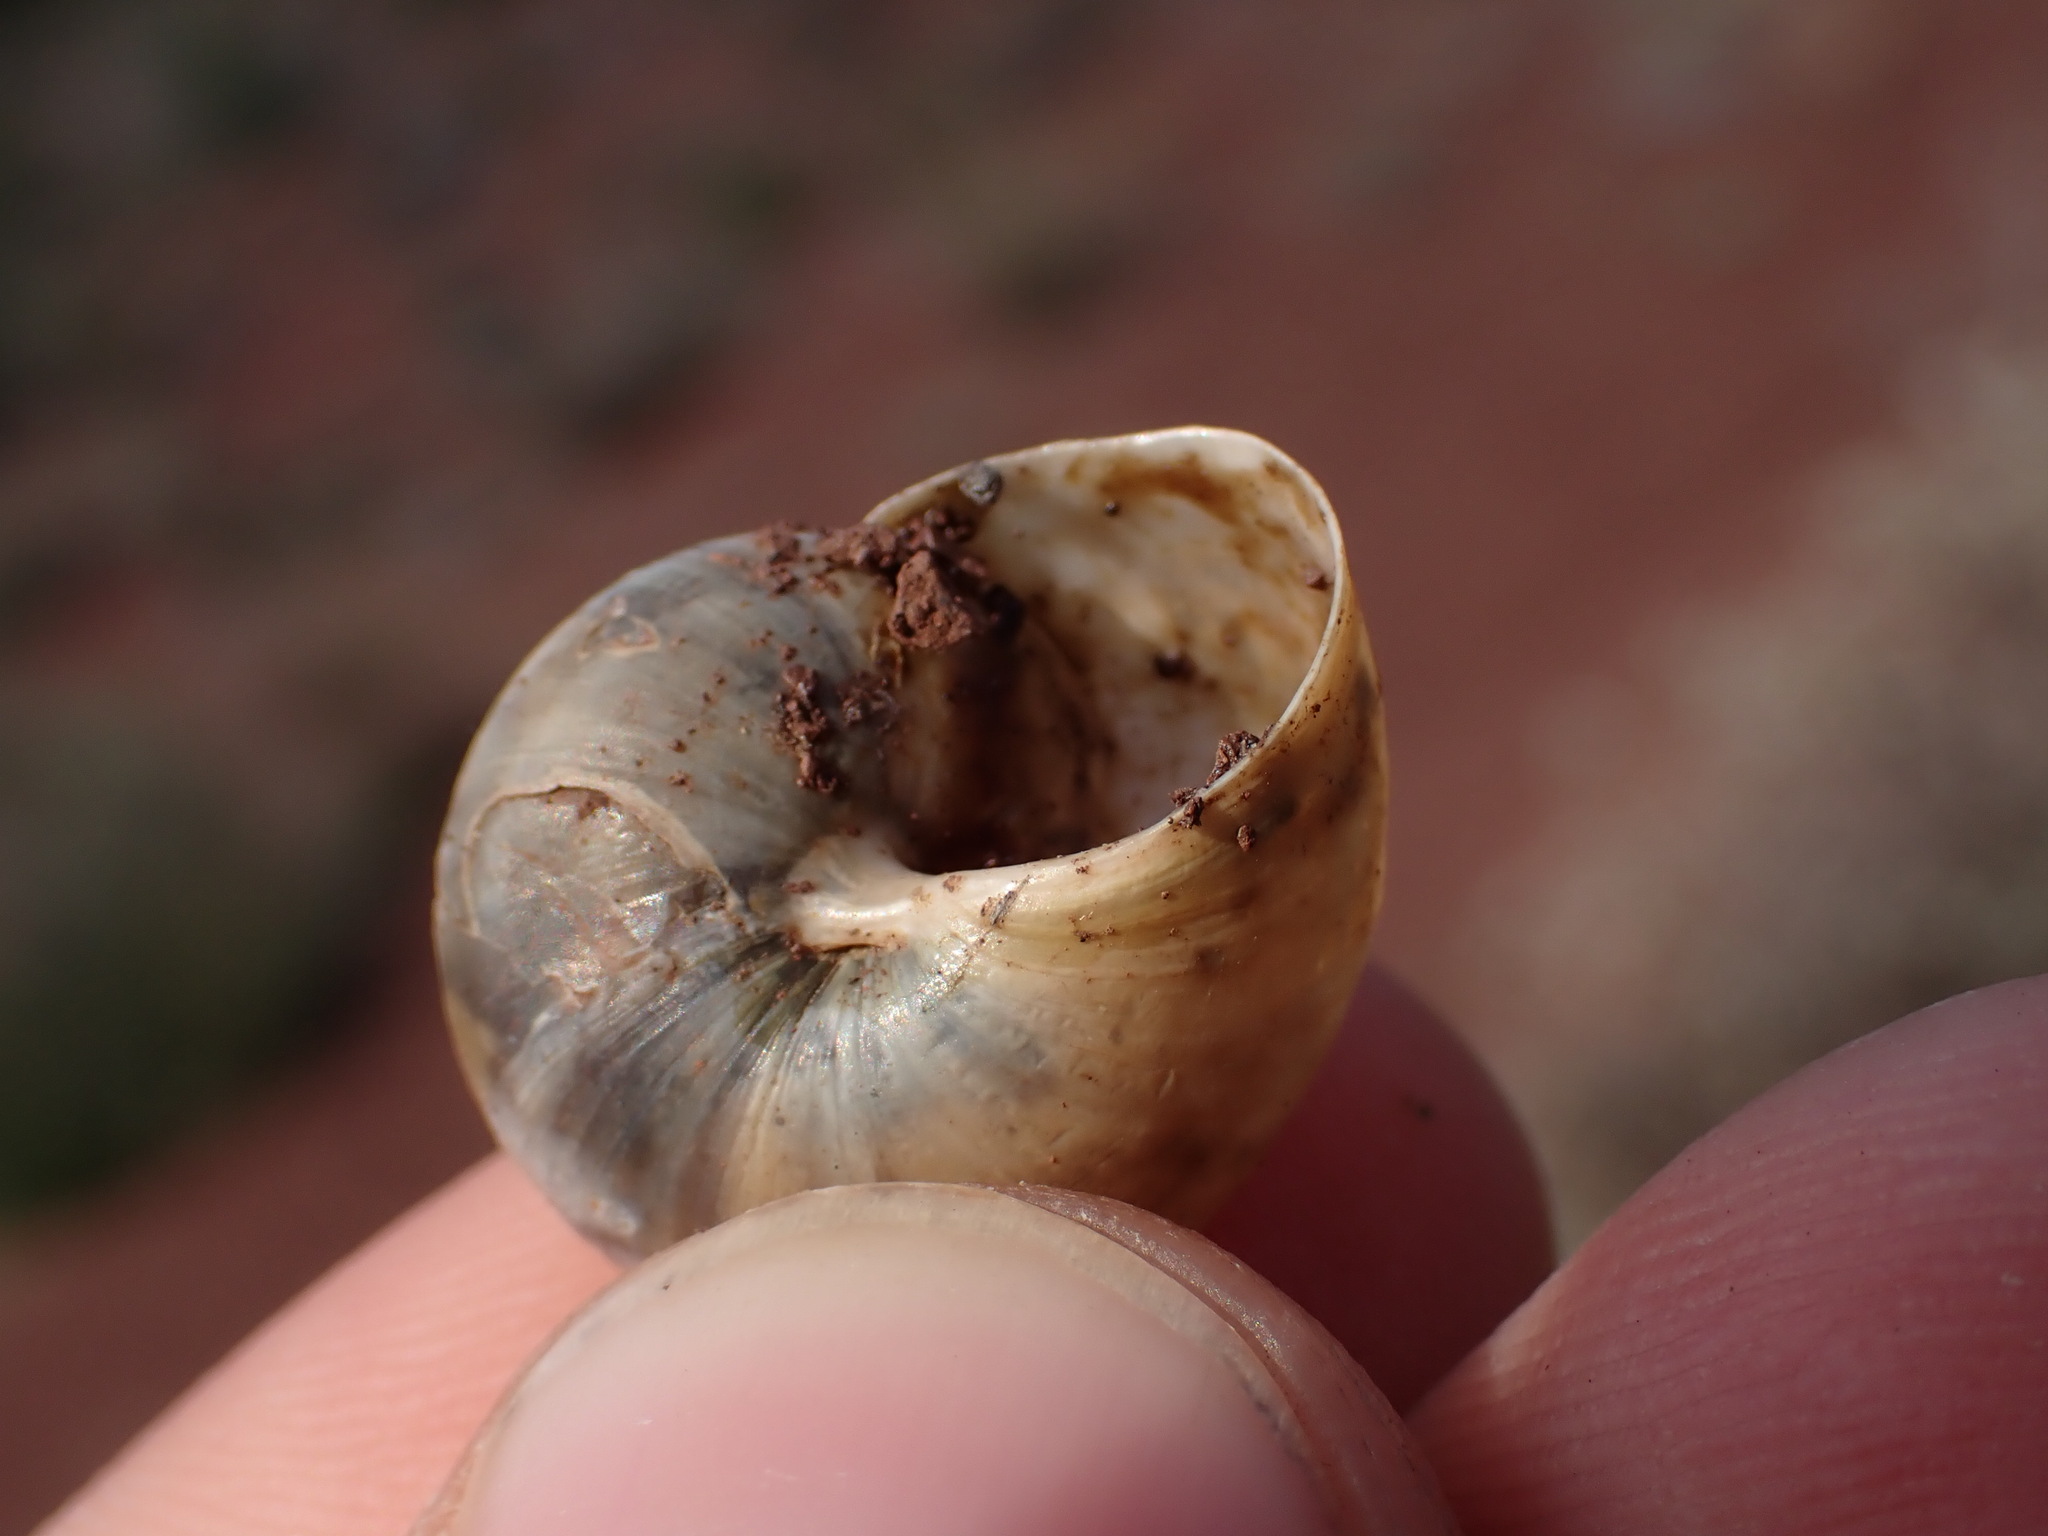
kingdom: Animalia
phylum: Mollusca
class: Gastropoda
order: Stylommatophora
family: Helicidae
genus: Pseudotachea
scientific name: Pseudotachea splendida
